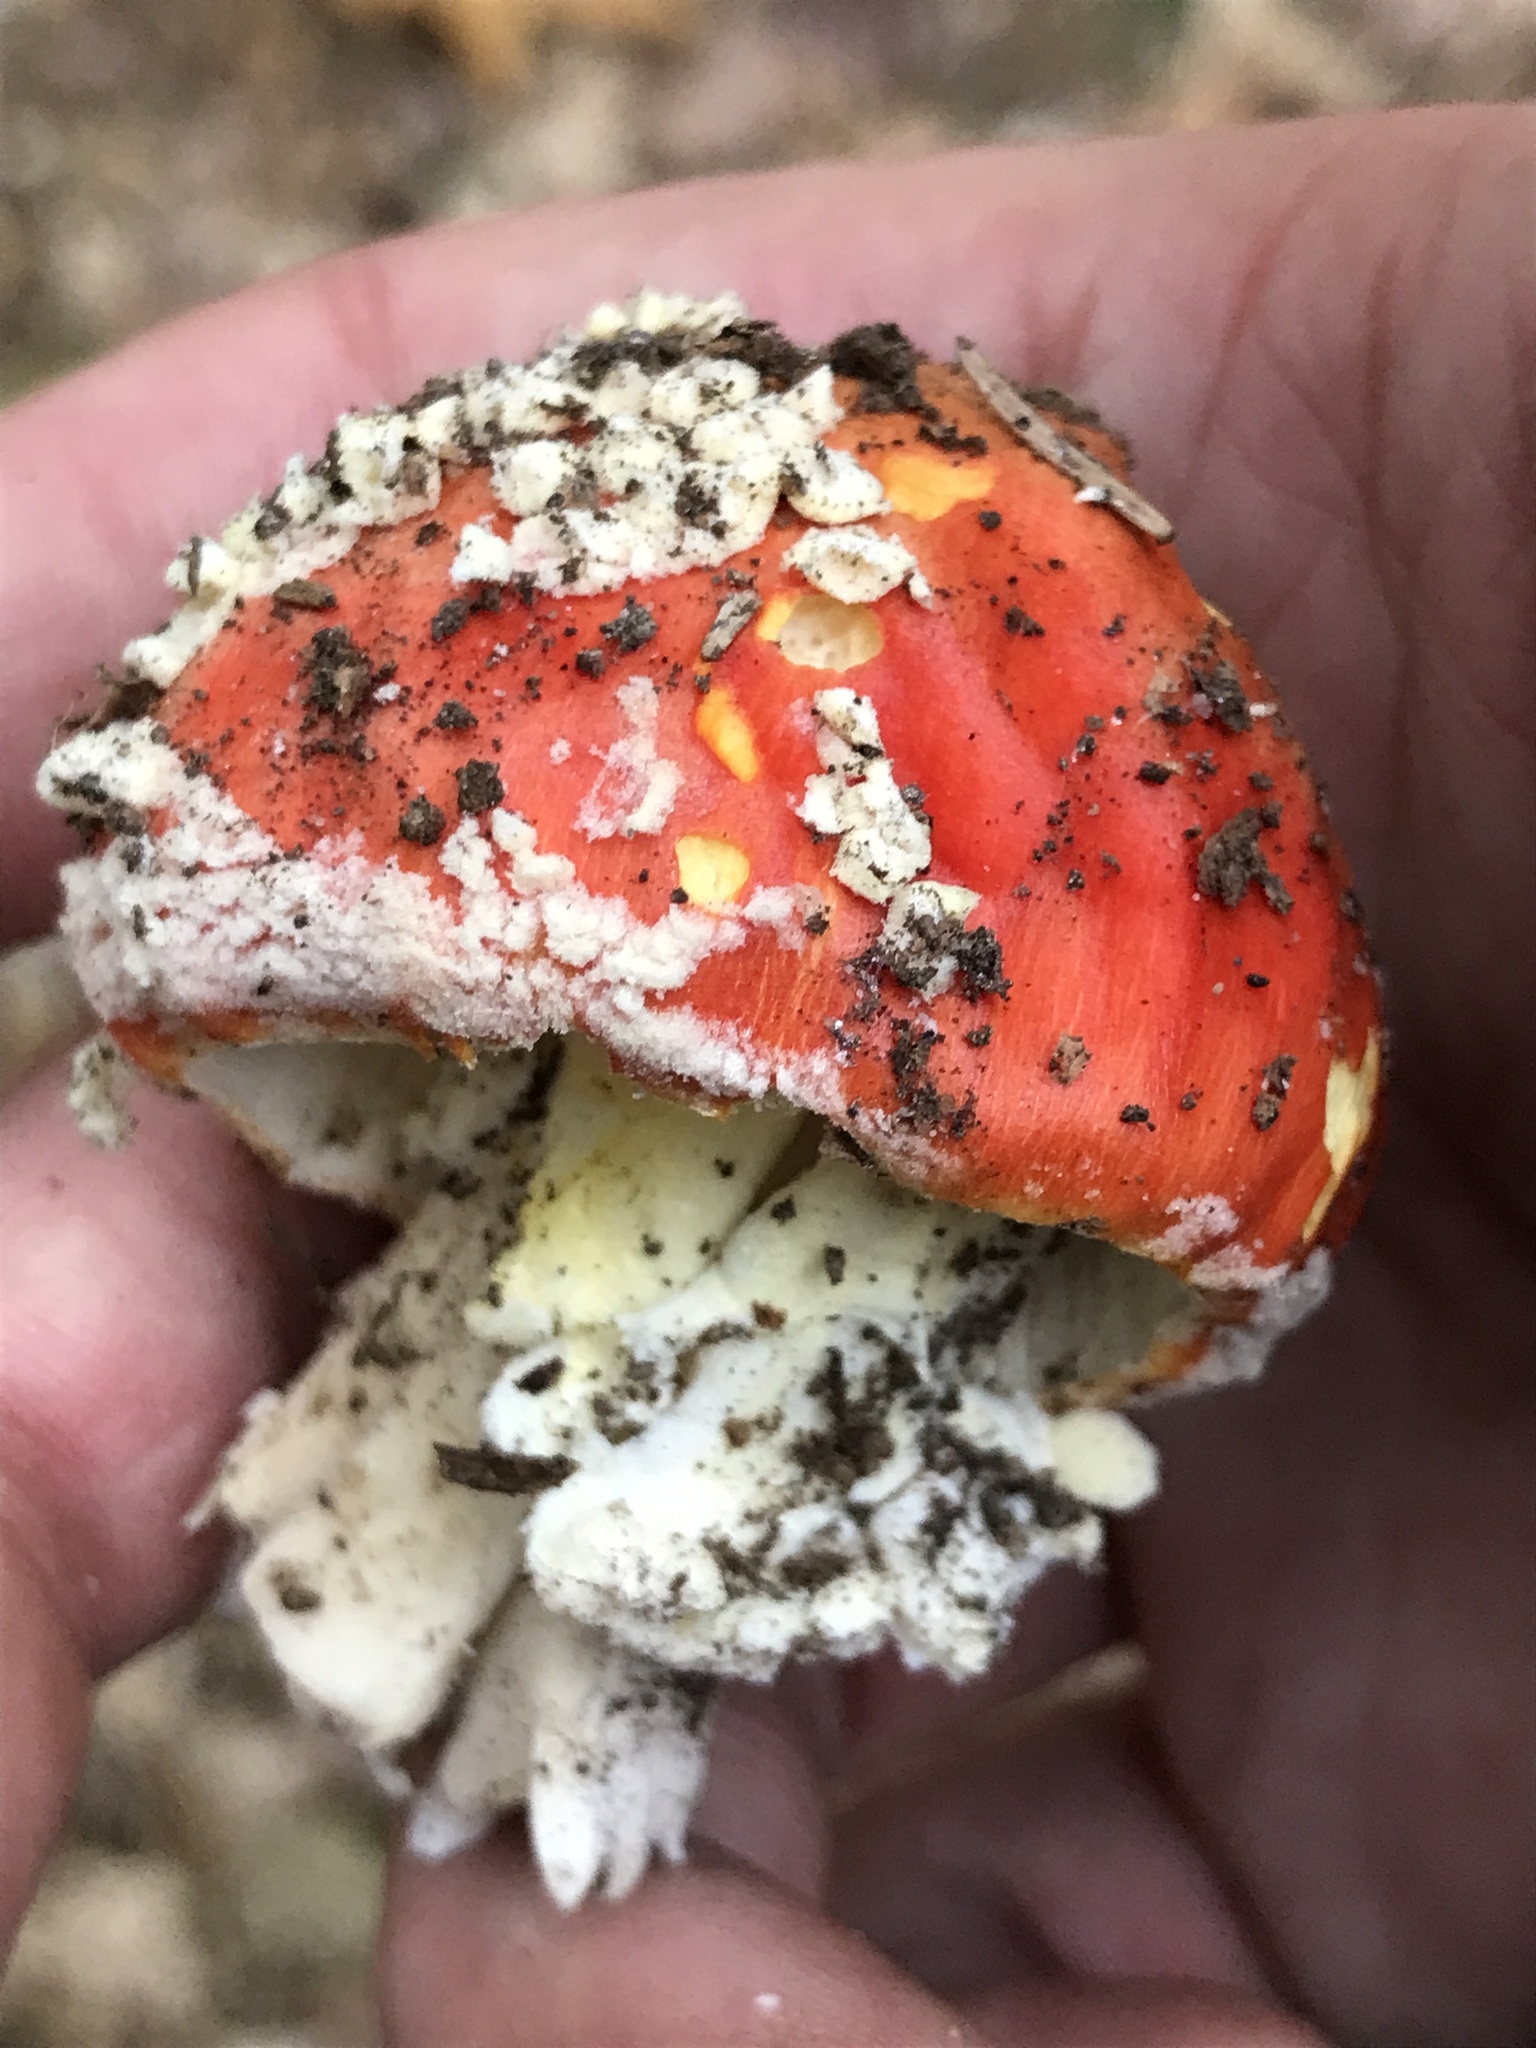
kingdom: Fungi
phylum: Basidiomycota
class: Agaricomycetes
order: Agaricales
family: Amanitaceae
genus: Amanita
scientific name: Amanita muscaria
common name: Fly agaric
